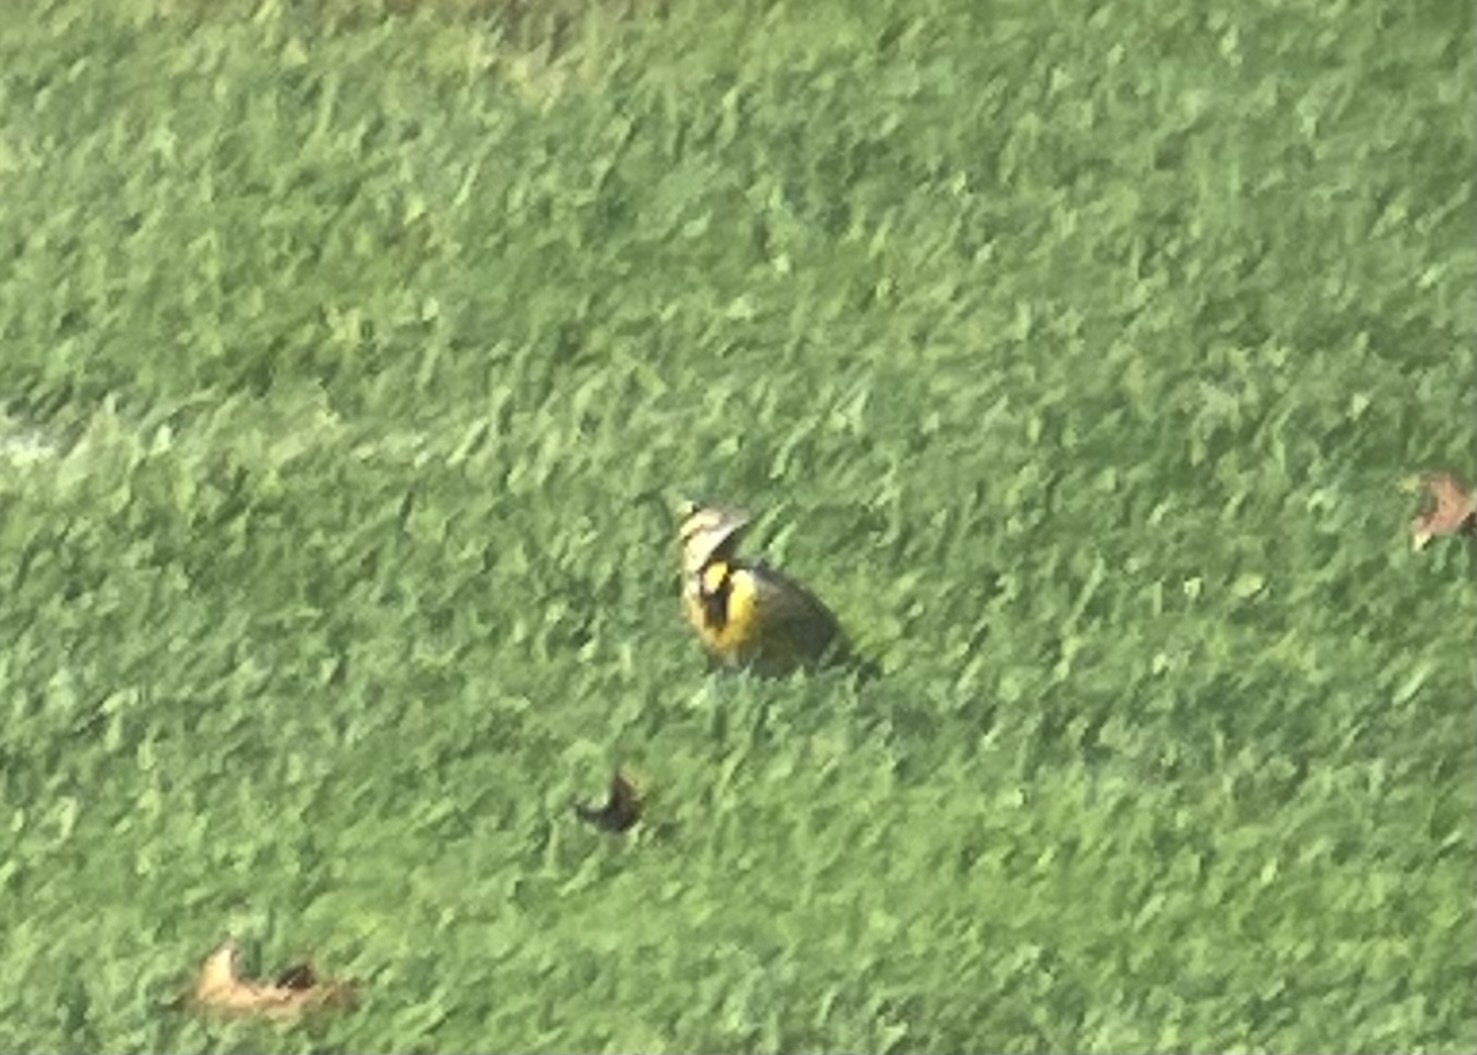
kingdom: Animalia
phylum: Chordata
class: Aves
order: Passeriformes
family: Icteridae
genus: Sturnella
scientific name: Sturnella magna
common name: Eastern meadowlark
